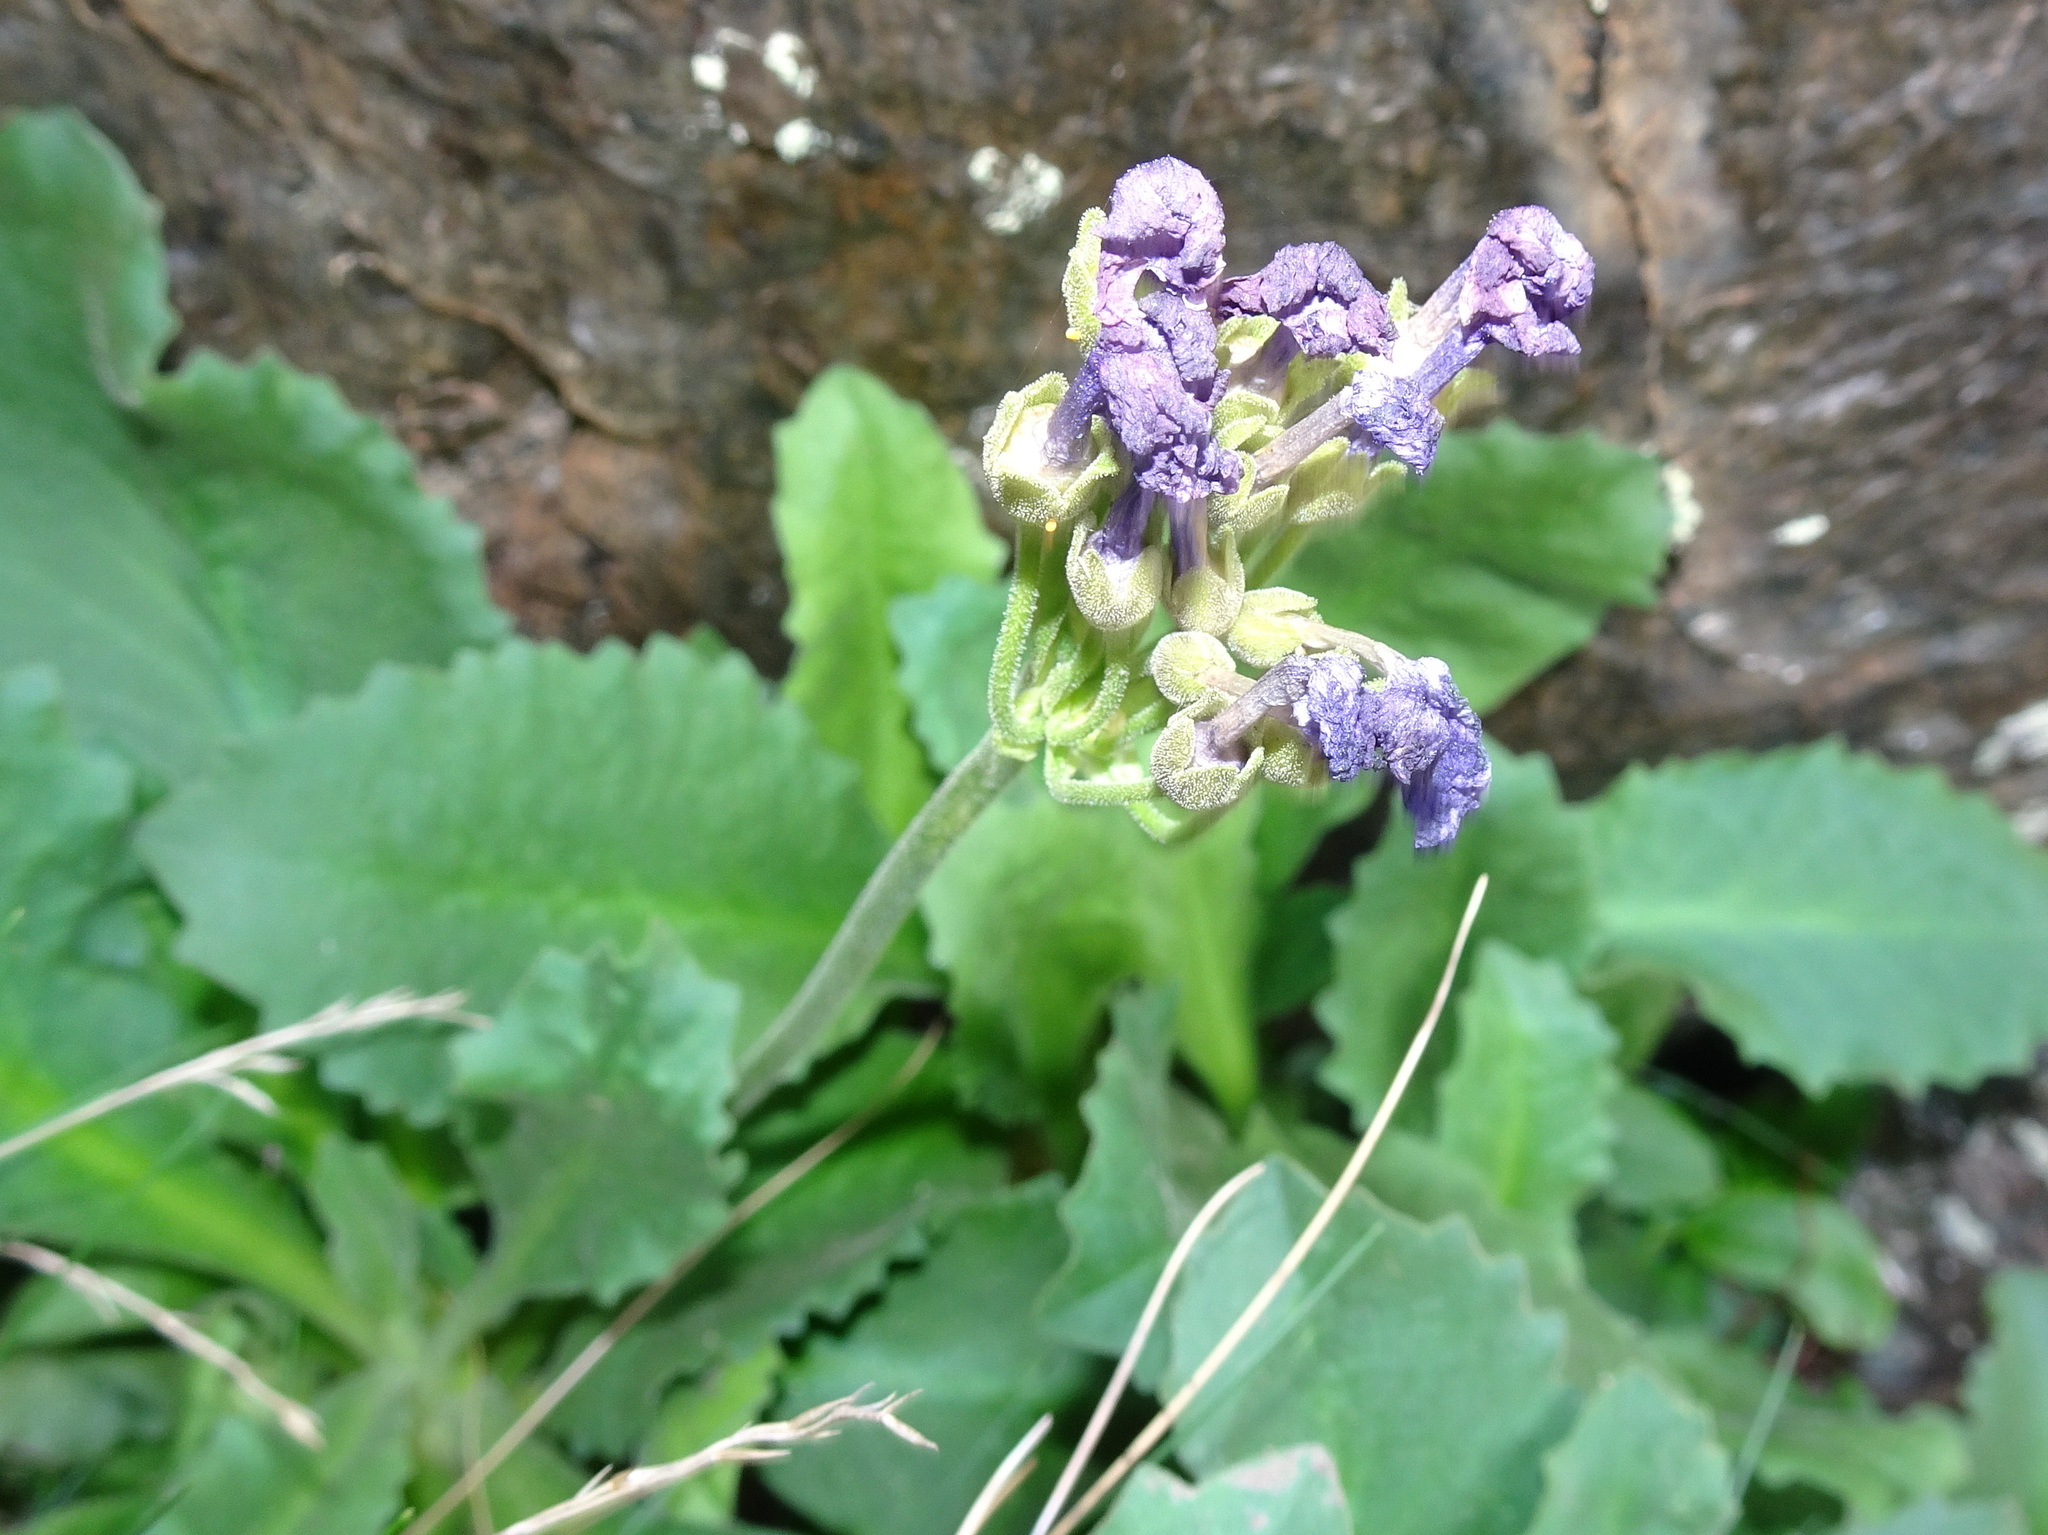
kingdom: Plantae
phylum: Tracheophyta
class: Magnoliopsida
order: Ericales
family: Primulaceae
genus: Primula
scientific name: Primula latifolia
